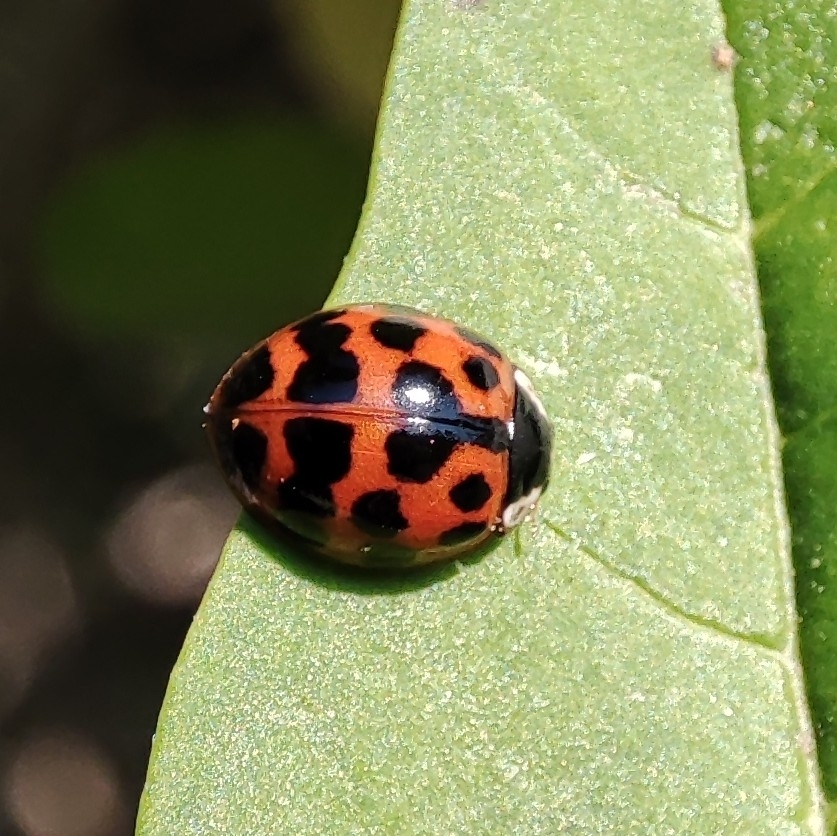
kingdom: Animalia
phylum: Arthropoda
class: Insecta
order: Coleoptera
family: Coccinellidae
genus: Harmonia
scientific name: Harmonia axyridis
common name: Harlequin ladybird
